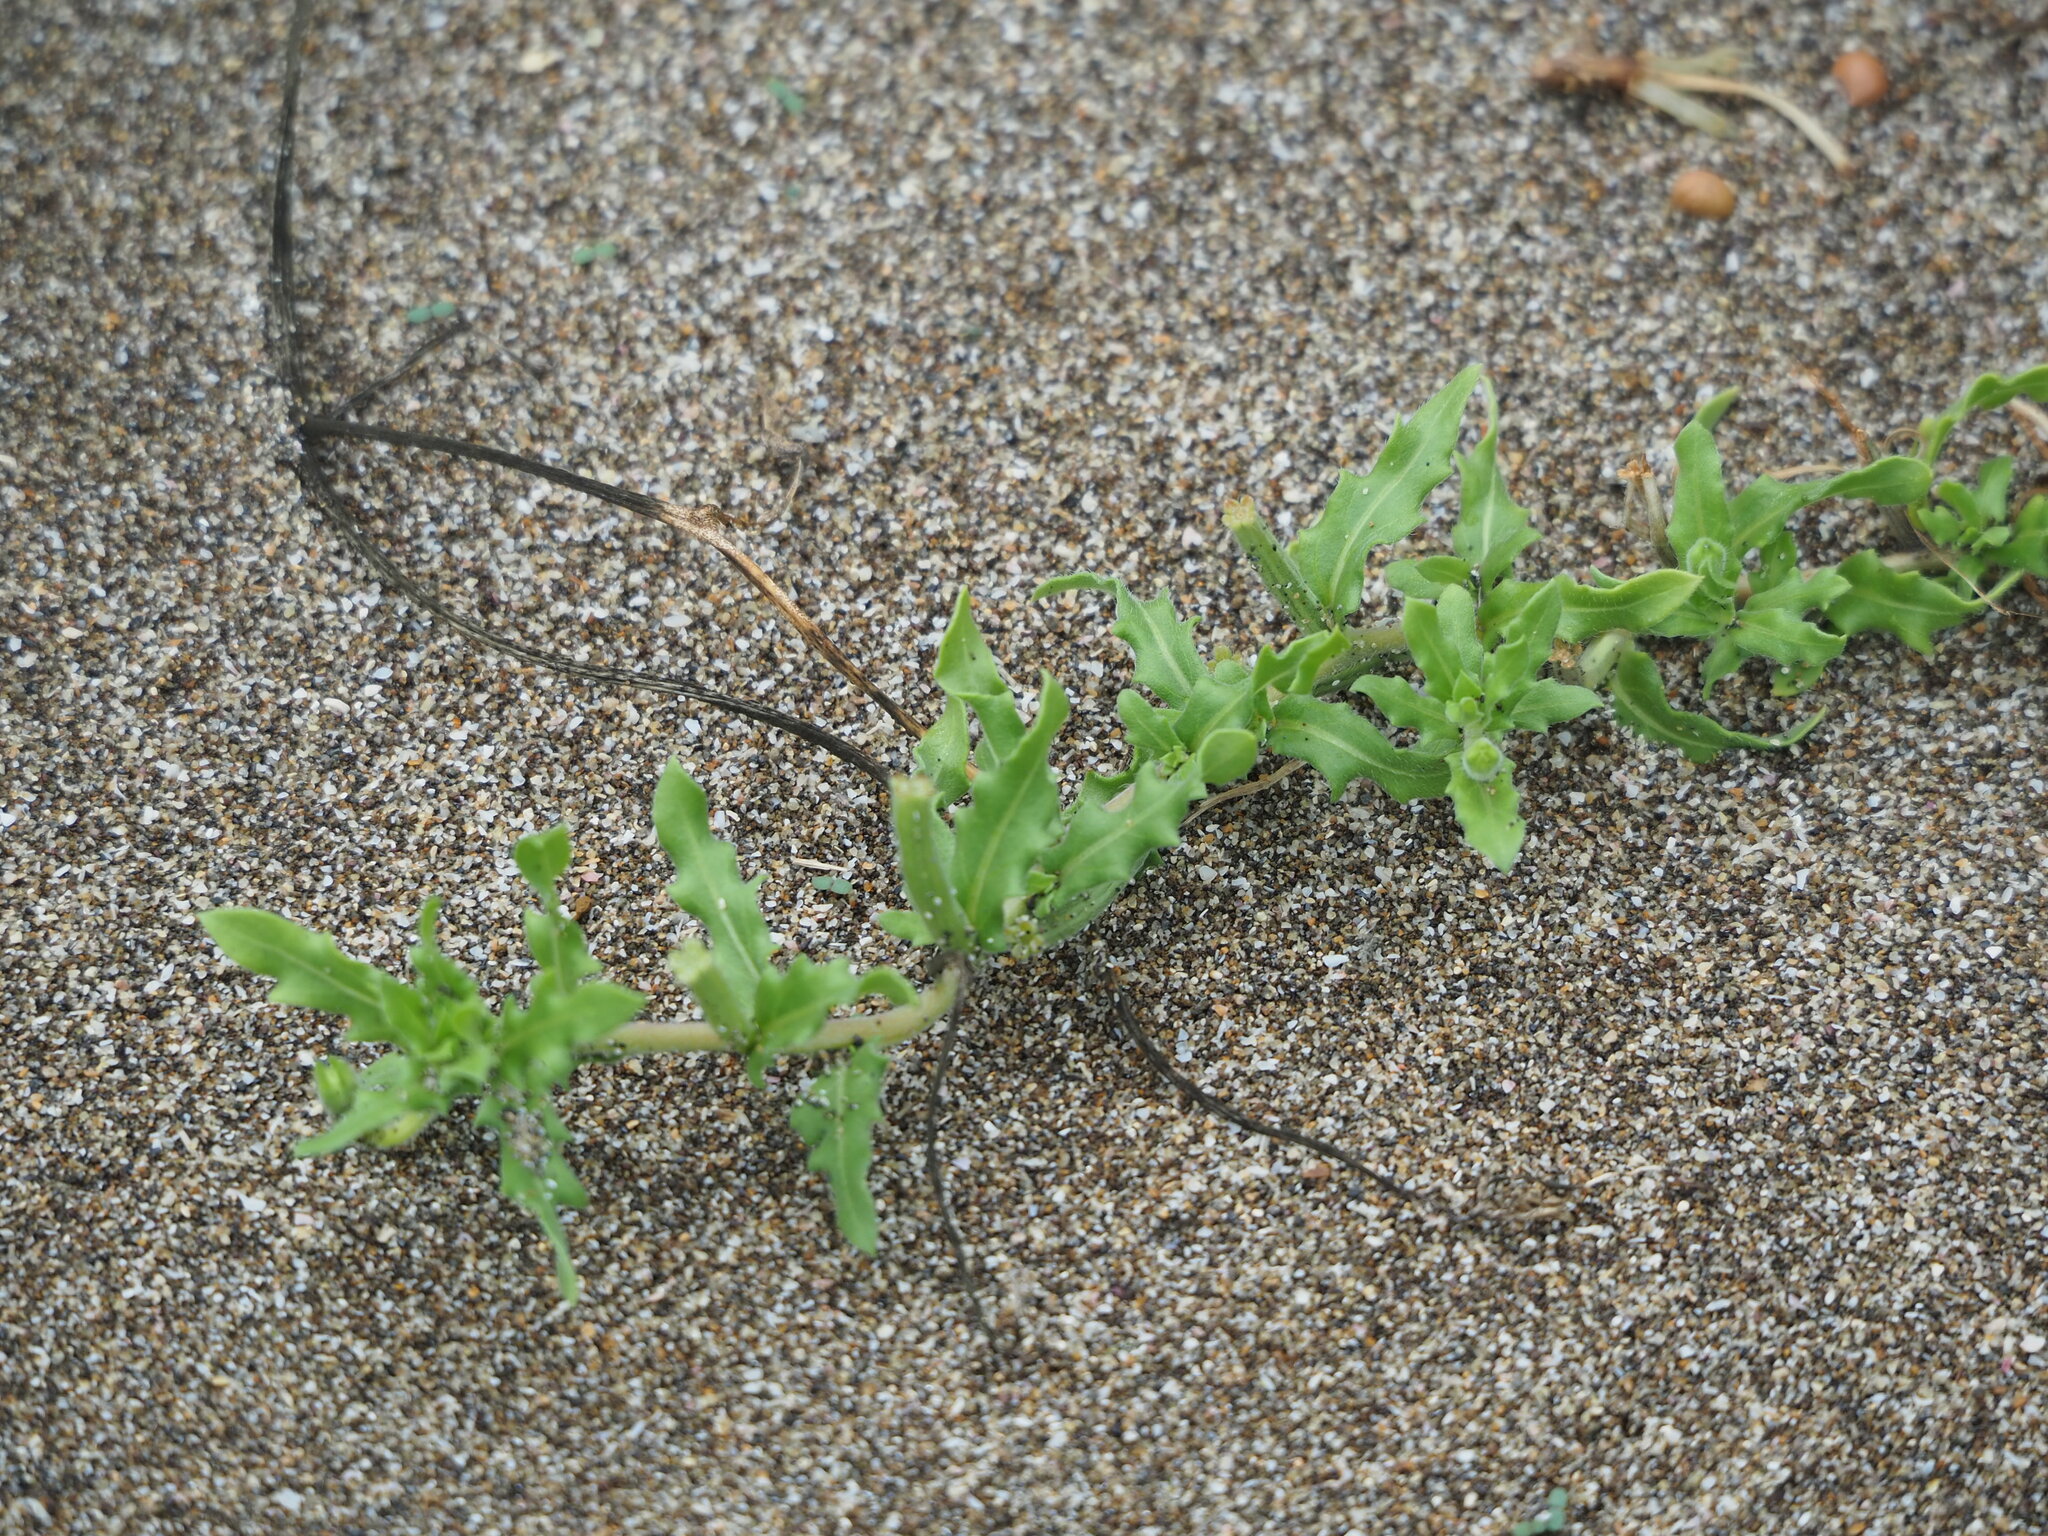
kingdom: Plantae
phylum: Tracheophyta
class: Magnoliopsida
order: Myrtales
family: Onagraceae
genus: Oenothera
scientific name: Oenothera laciniata
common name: Cut-leaved evening-primrose
